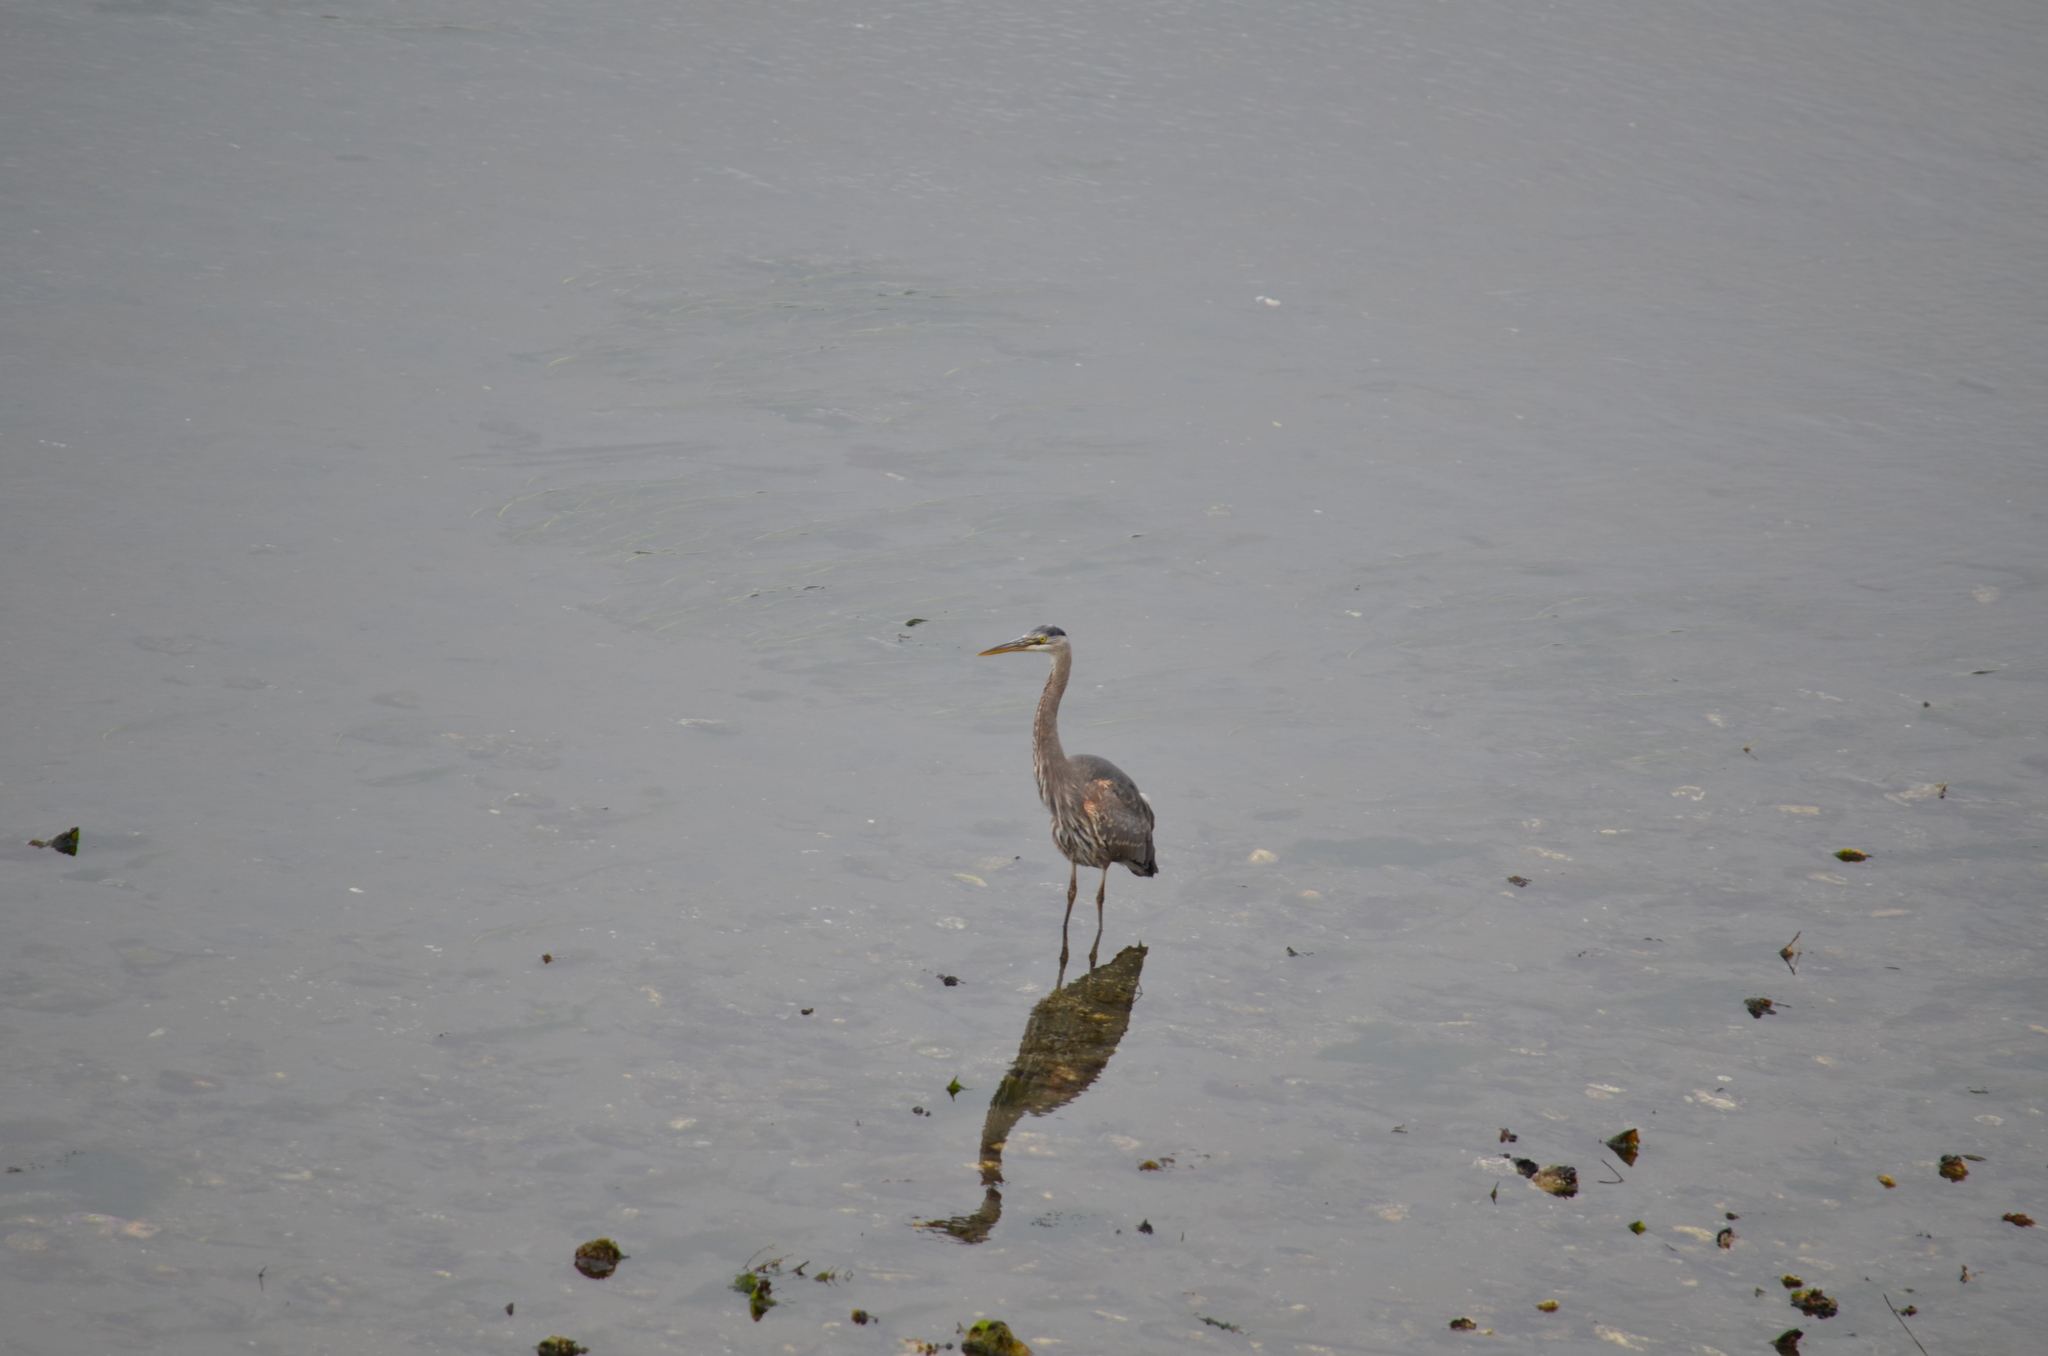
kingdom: Animalia
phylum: Chordata
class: Aves
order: Pelecaniformes
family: Ardeidae
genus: Ardea
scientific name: Ardea herodias
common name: Great blue heron
